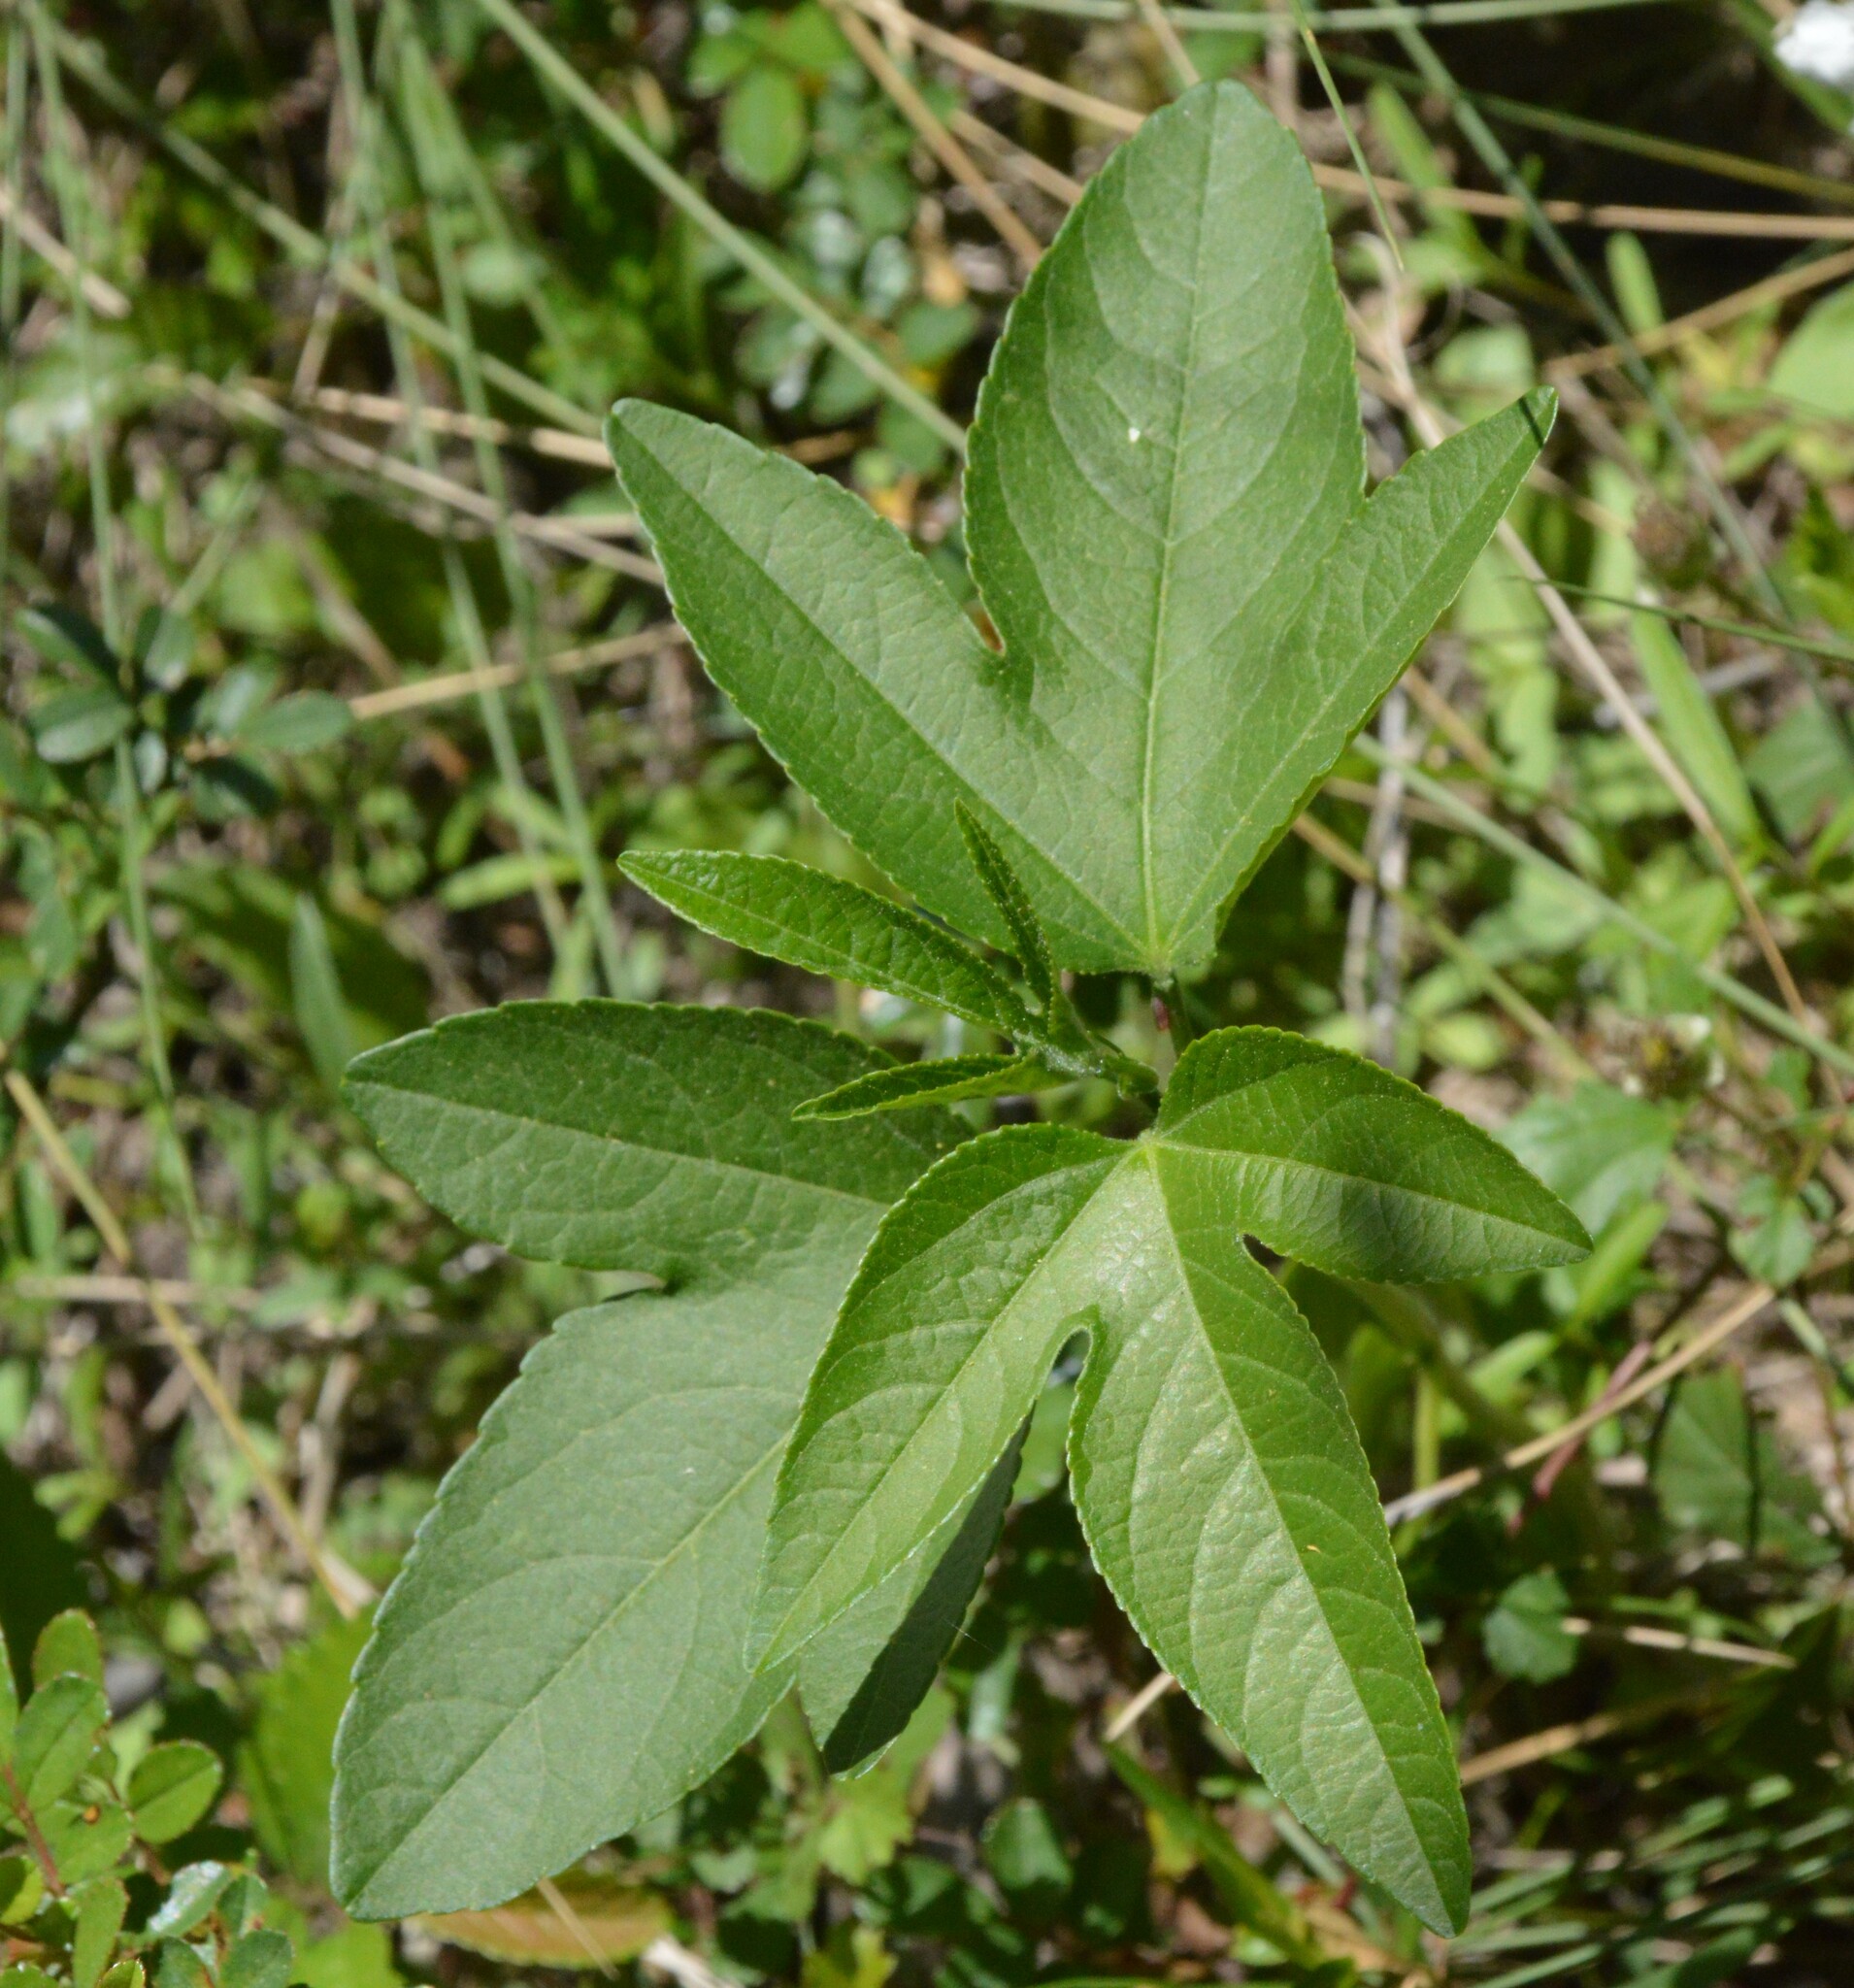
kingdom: Plantae
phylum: Tracheophyta
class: Magnoliopsida
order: Malpighiales
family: Passifloraceae
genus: Passiflora
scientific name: Passiflora incarnata
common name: Apricot-vine
